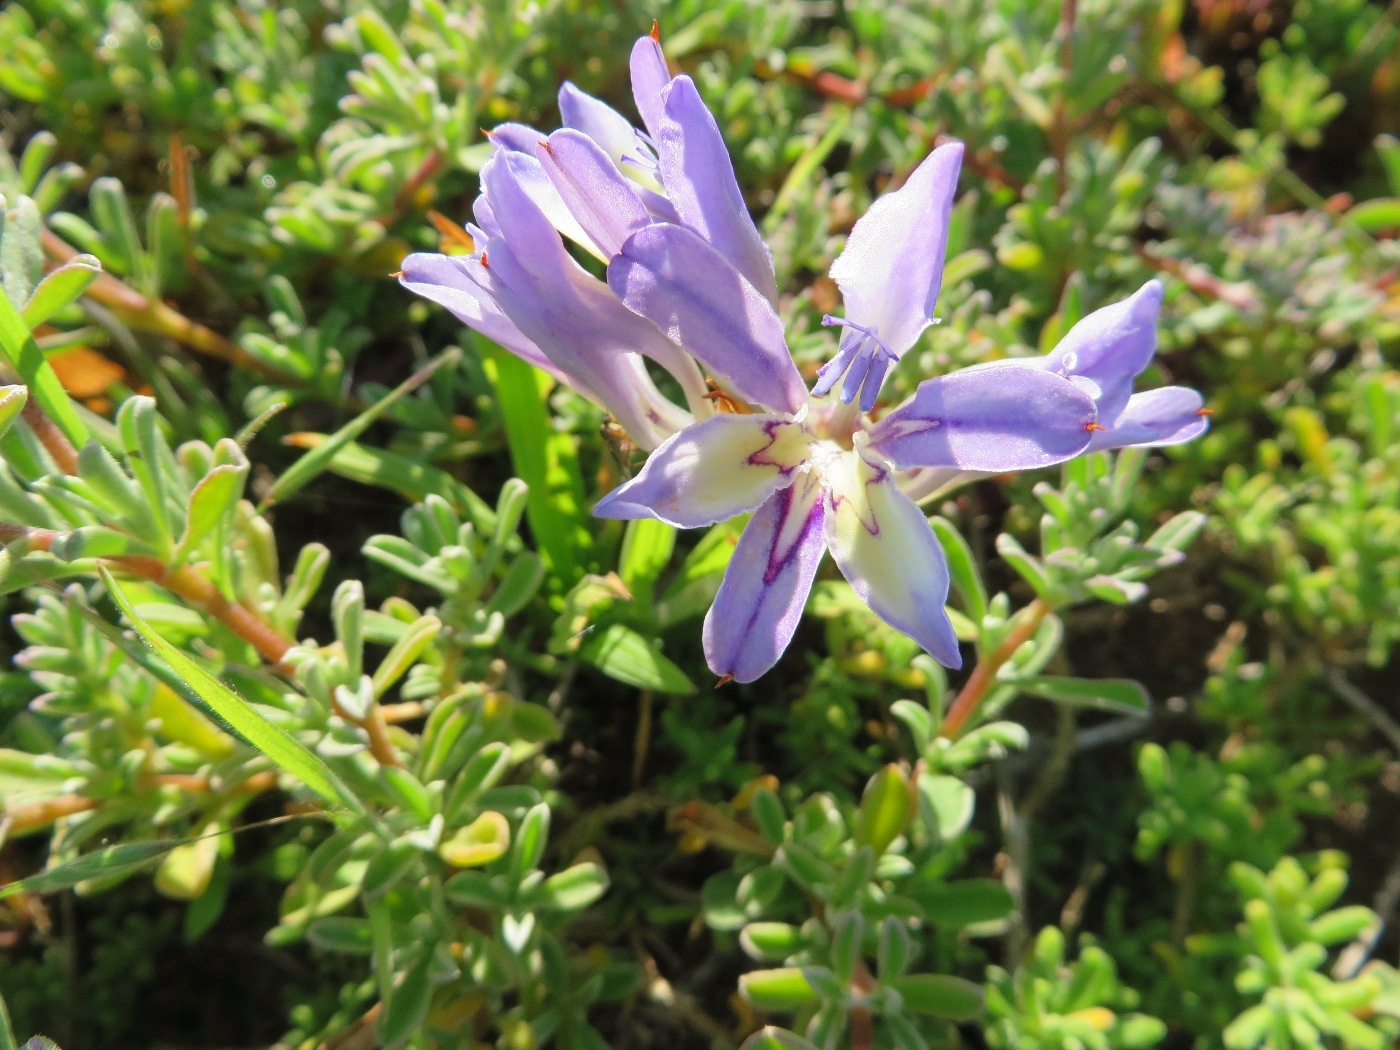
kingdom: Plantae
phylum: Tracheophyta
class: Liliopsida
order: Asparagales
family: Iridaceae
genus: Babiana
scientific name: Babiana ambigua
